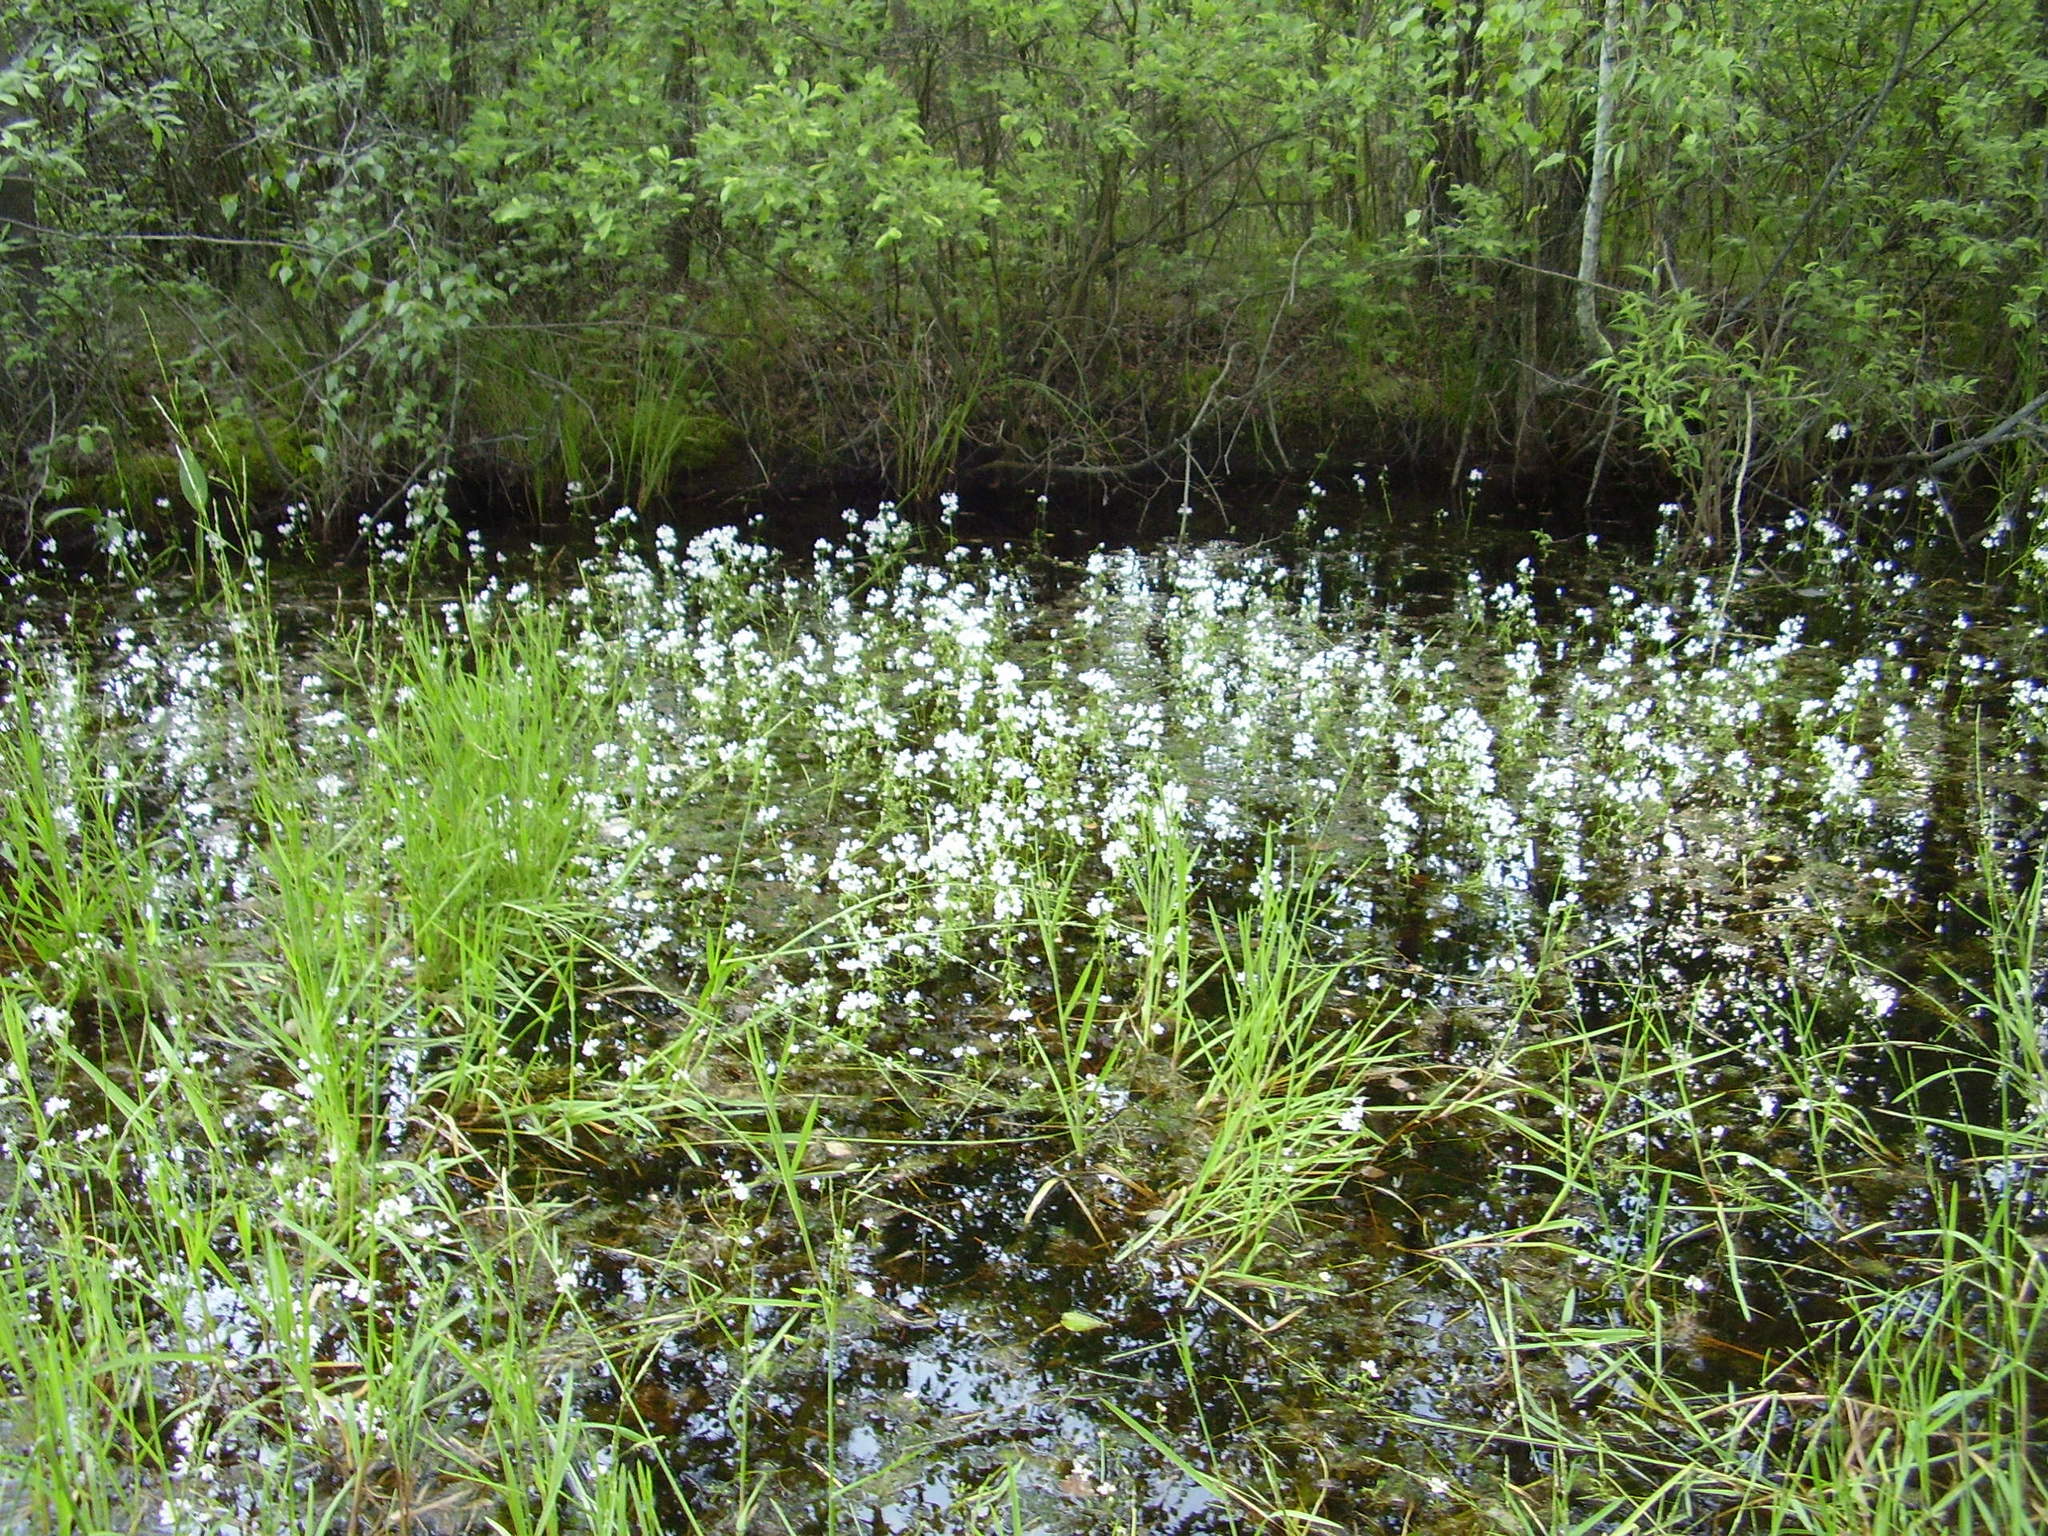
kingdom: Plantae
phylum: Tracheophyta
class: Magnoliopsida
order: Ericales
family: Primulaceae
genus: Hottonia
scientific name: Hottonia palustris
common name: Water-violet
